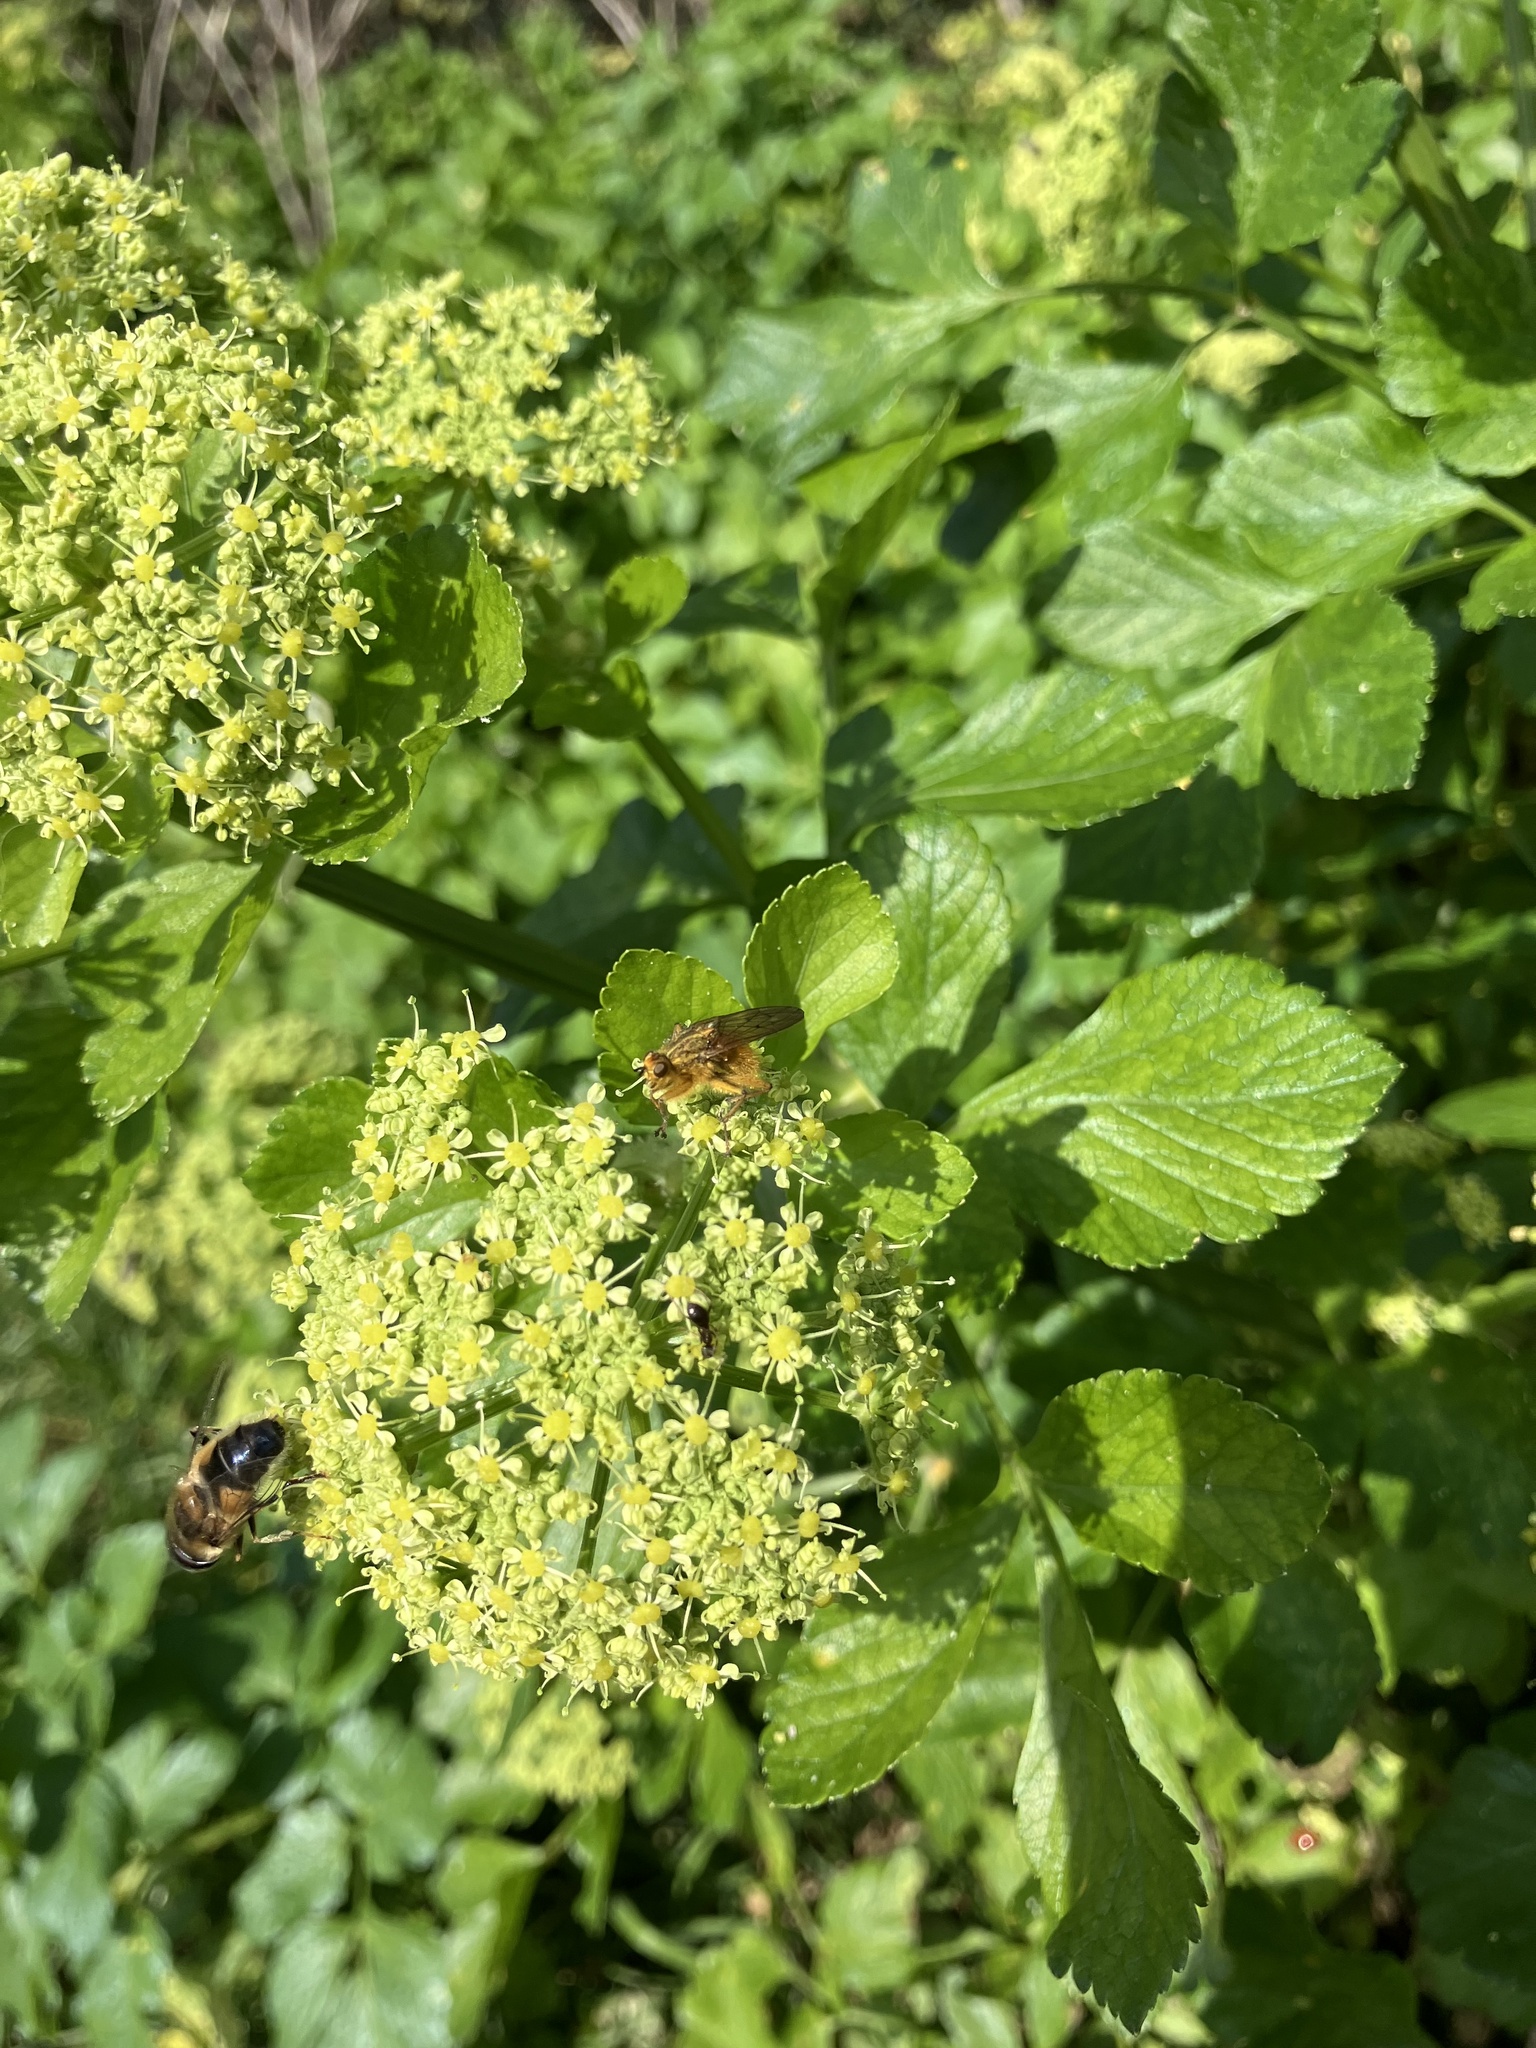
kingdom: Animalia
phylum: Arthropoda
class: Insecta
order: Diptera
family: Scathophagidae
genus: Scathophaga
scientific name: Scathophaga stercoraria
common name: Yellow dung fly
